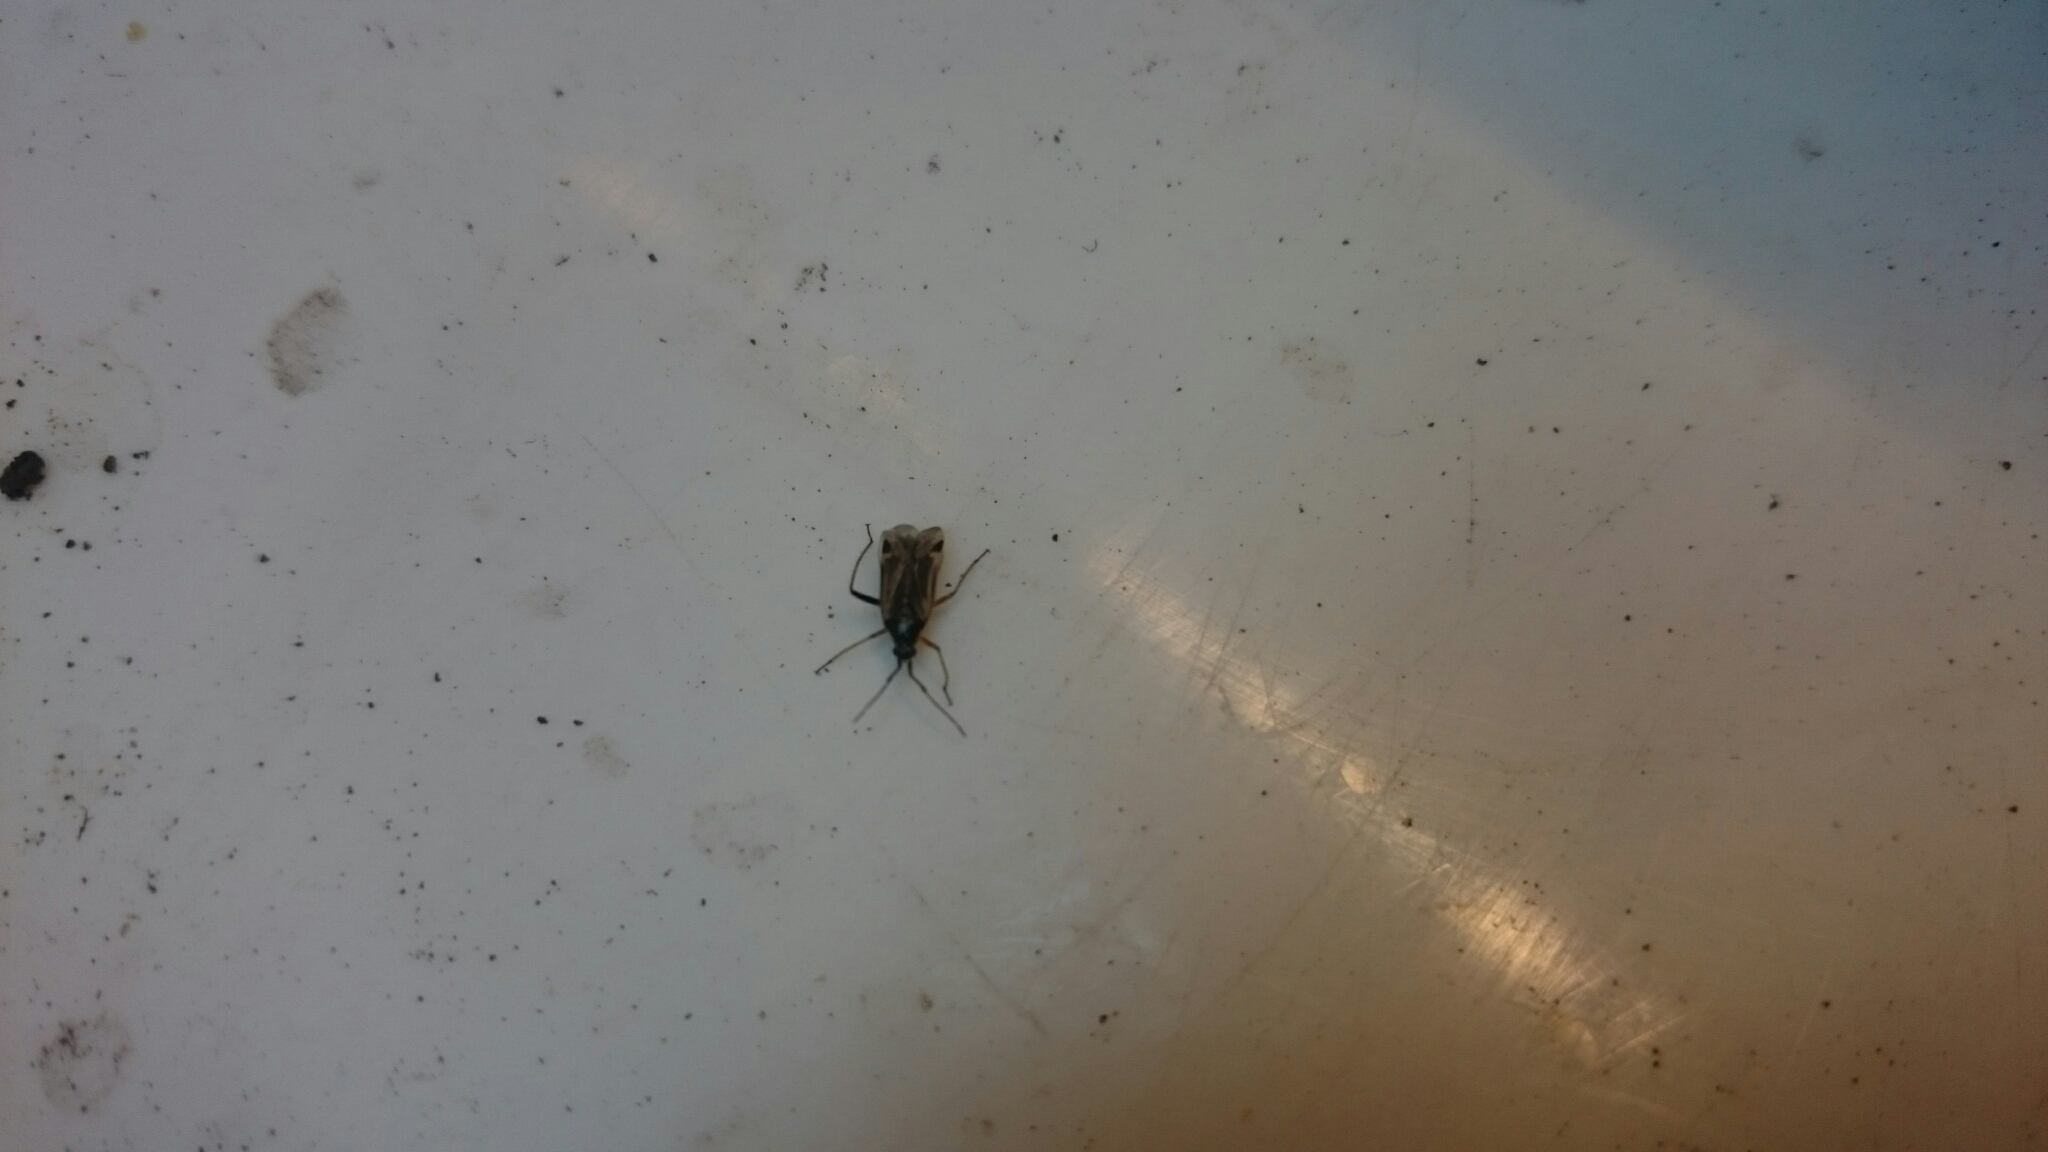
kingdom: Animalia
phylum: Arthropoda
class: Insecta
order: Hemiptera
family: Miridae
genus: Harpocera
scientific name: Harpocera thoracica
